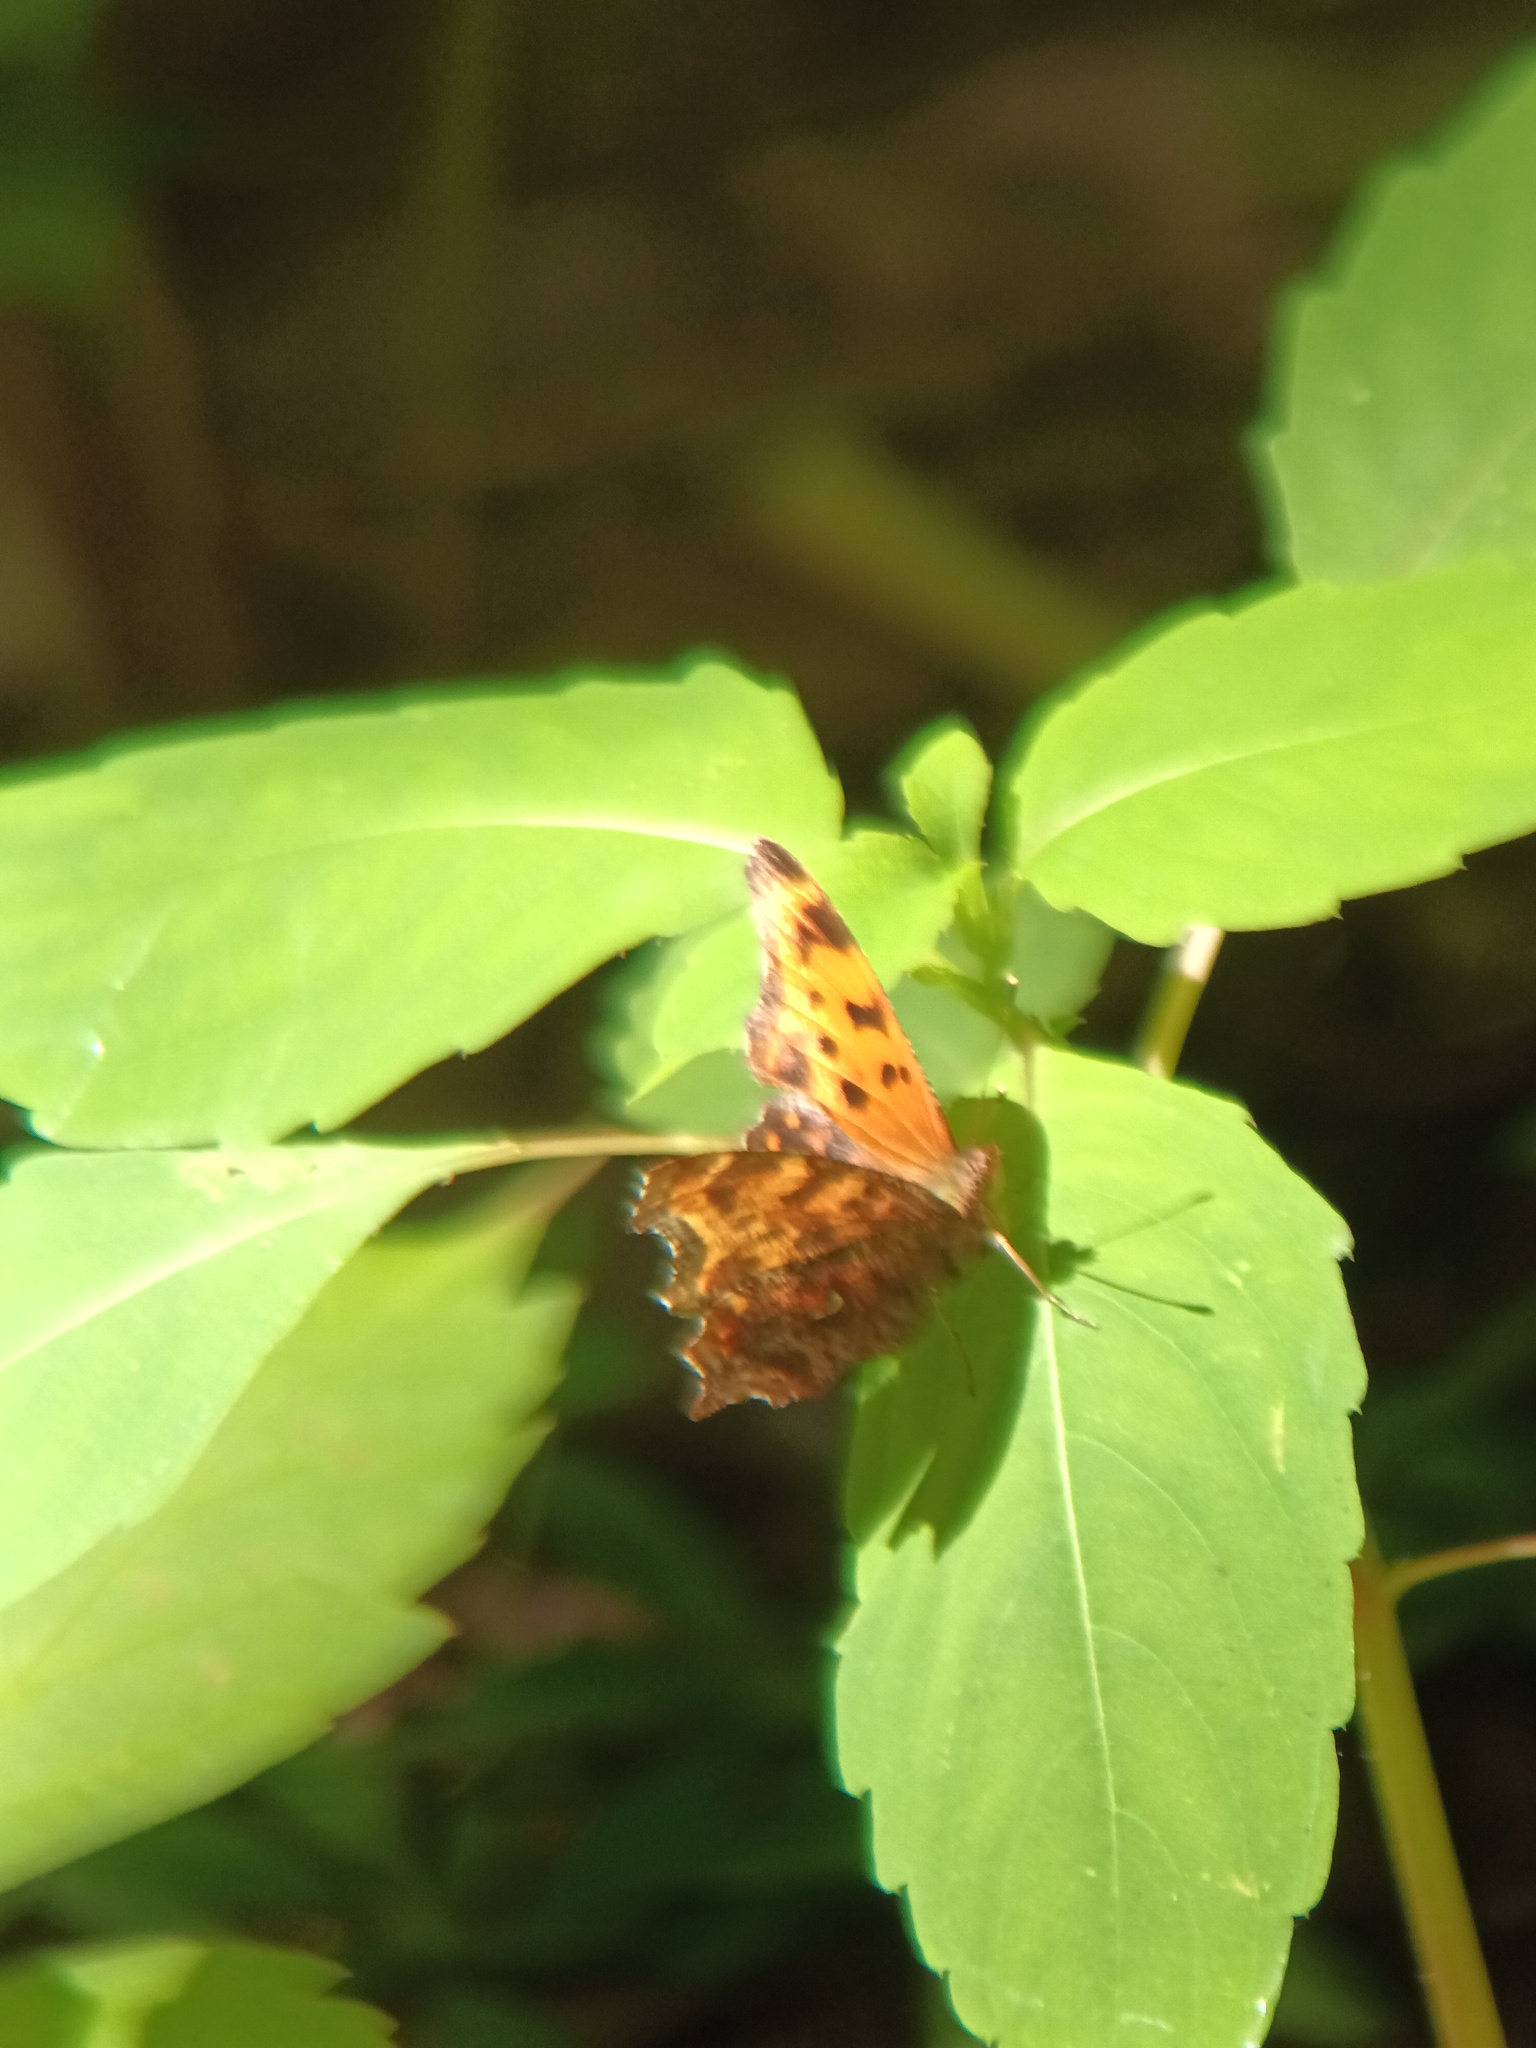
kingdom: Animalia
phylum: Arthropoda
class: Insecta
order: Lepidoptera
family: Nymphalidae
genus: Polygonia
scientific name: Polygonia comma
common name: Eastern comma
